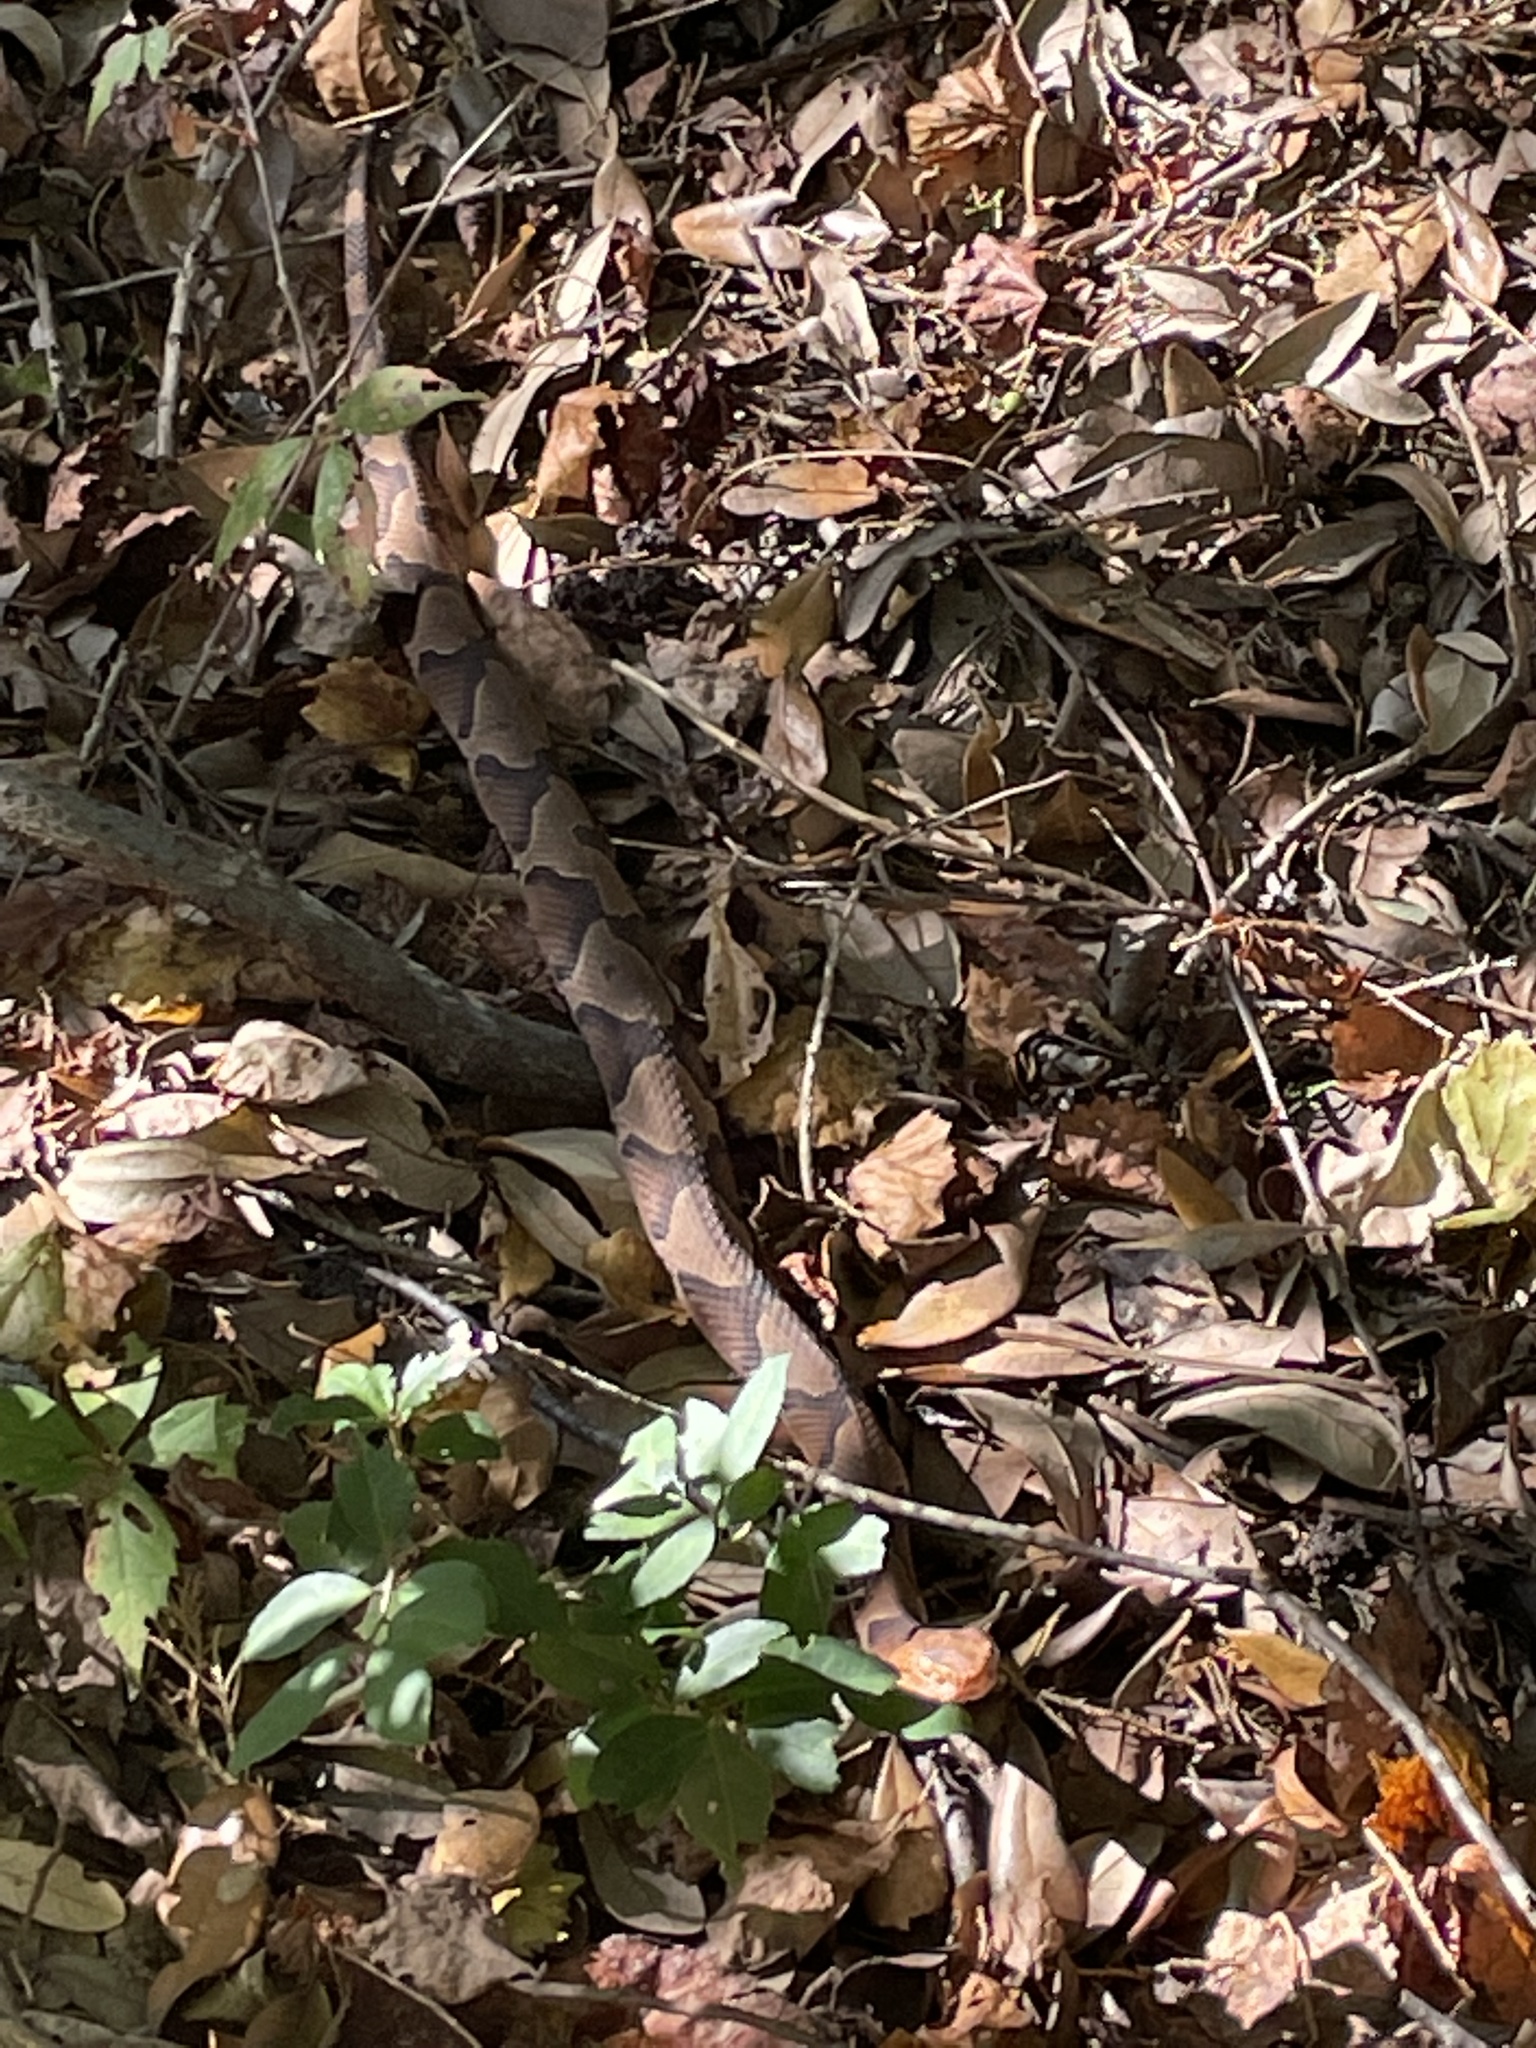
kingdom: Animalia
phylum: Chordata
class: Squamata
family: Viperidae
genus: Agkistrodon
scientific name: Agkistrodon contortrix
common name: Northern copperhead
